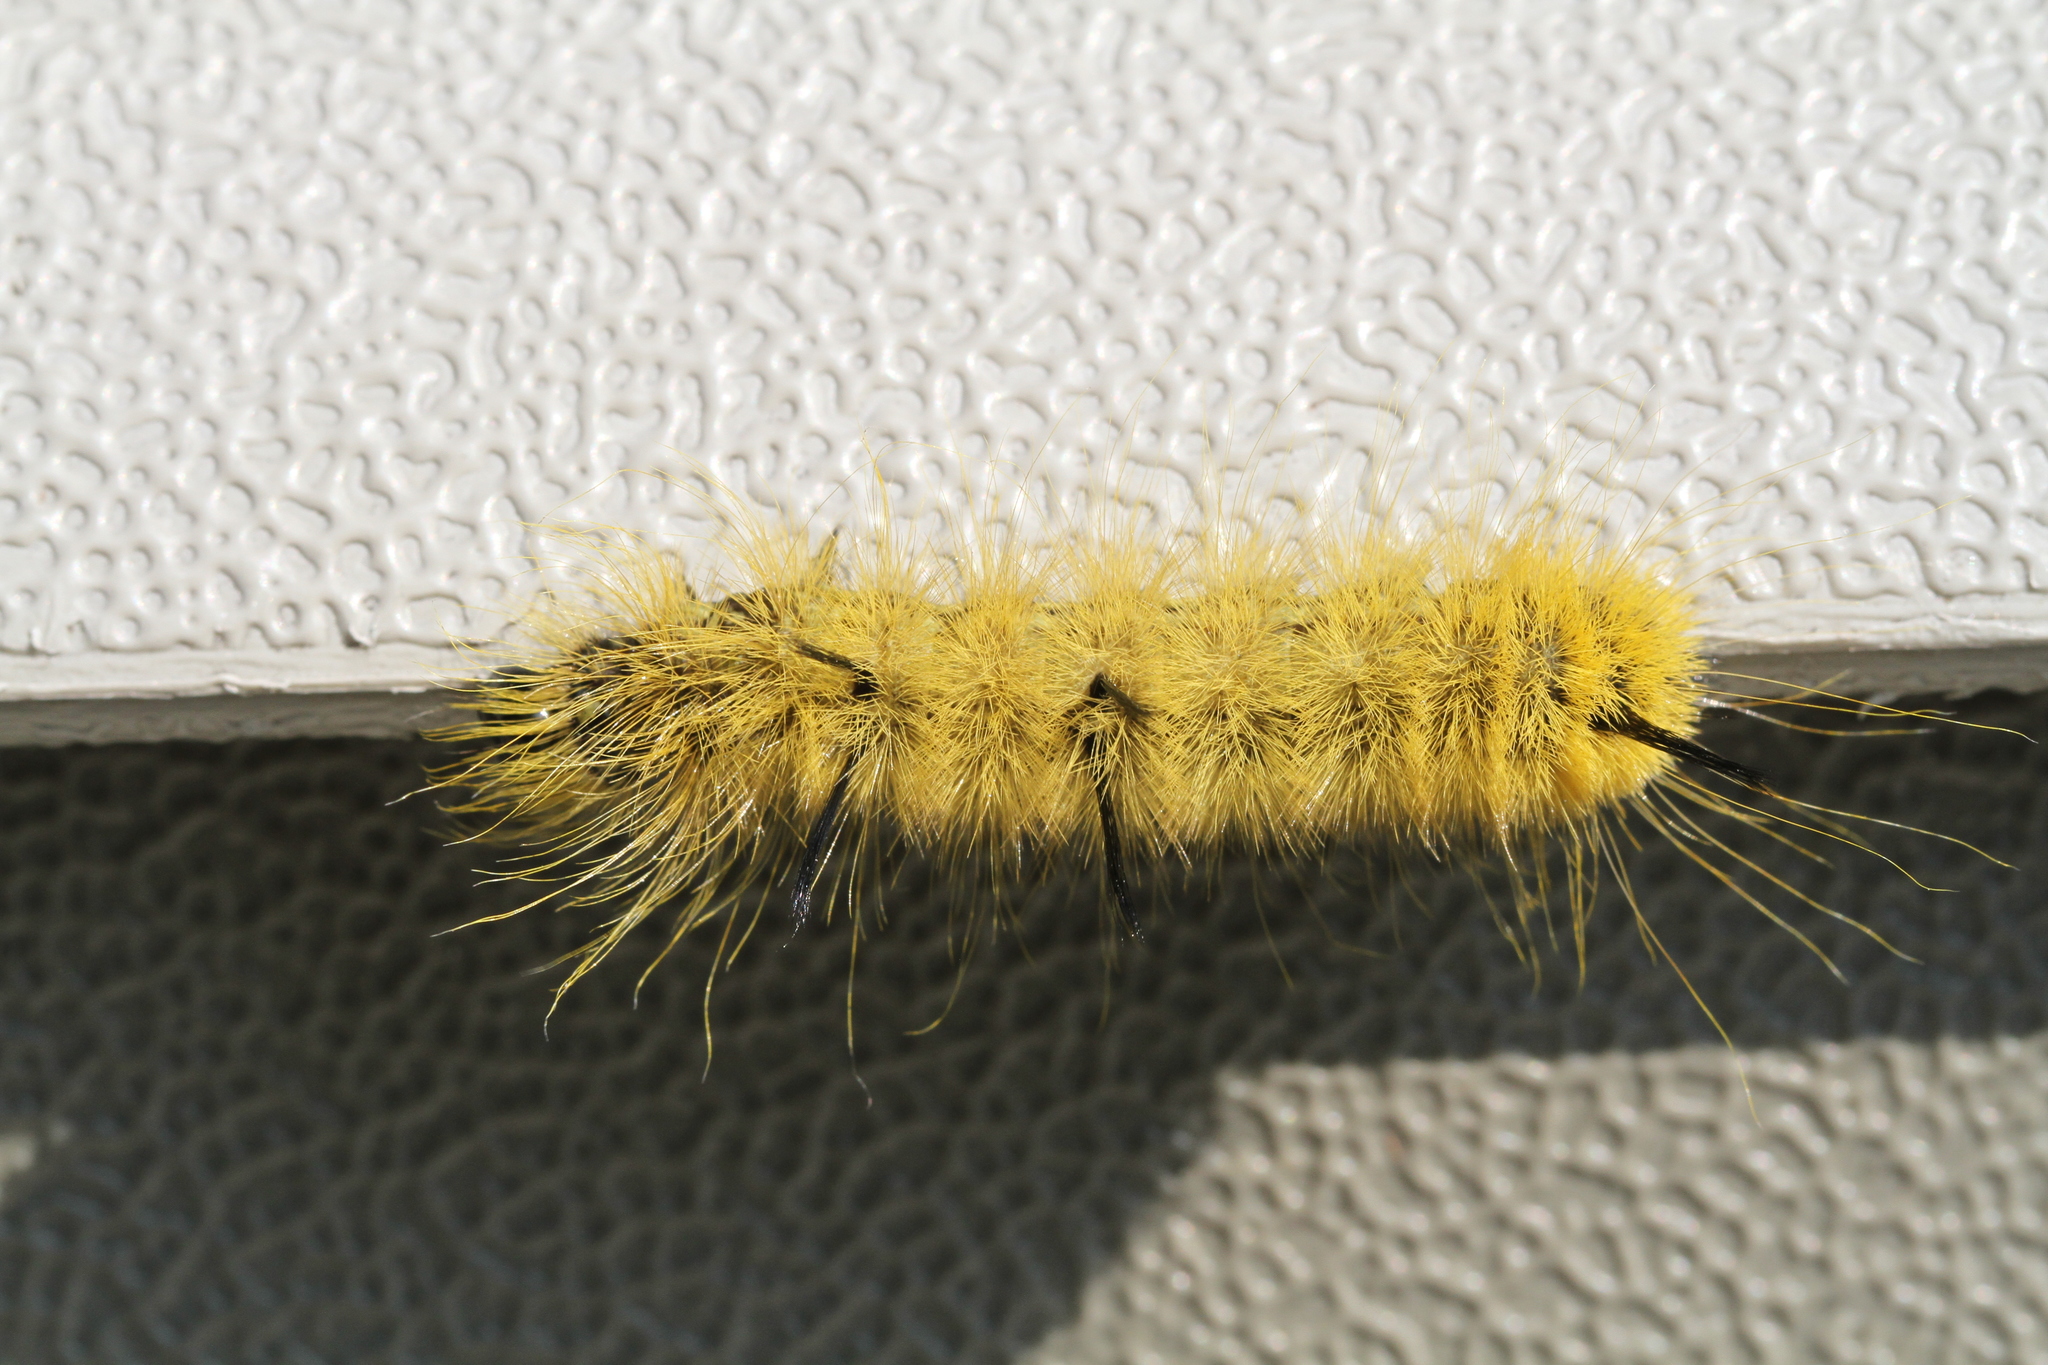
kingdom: Animalia
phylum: Arthropoda
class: Insecta
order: Lepidoptera
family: Noctuidae
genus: Acronicta
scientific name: Acronicta americana
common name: American dagger
